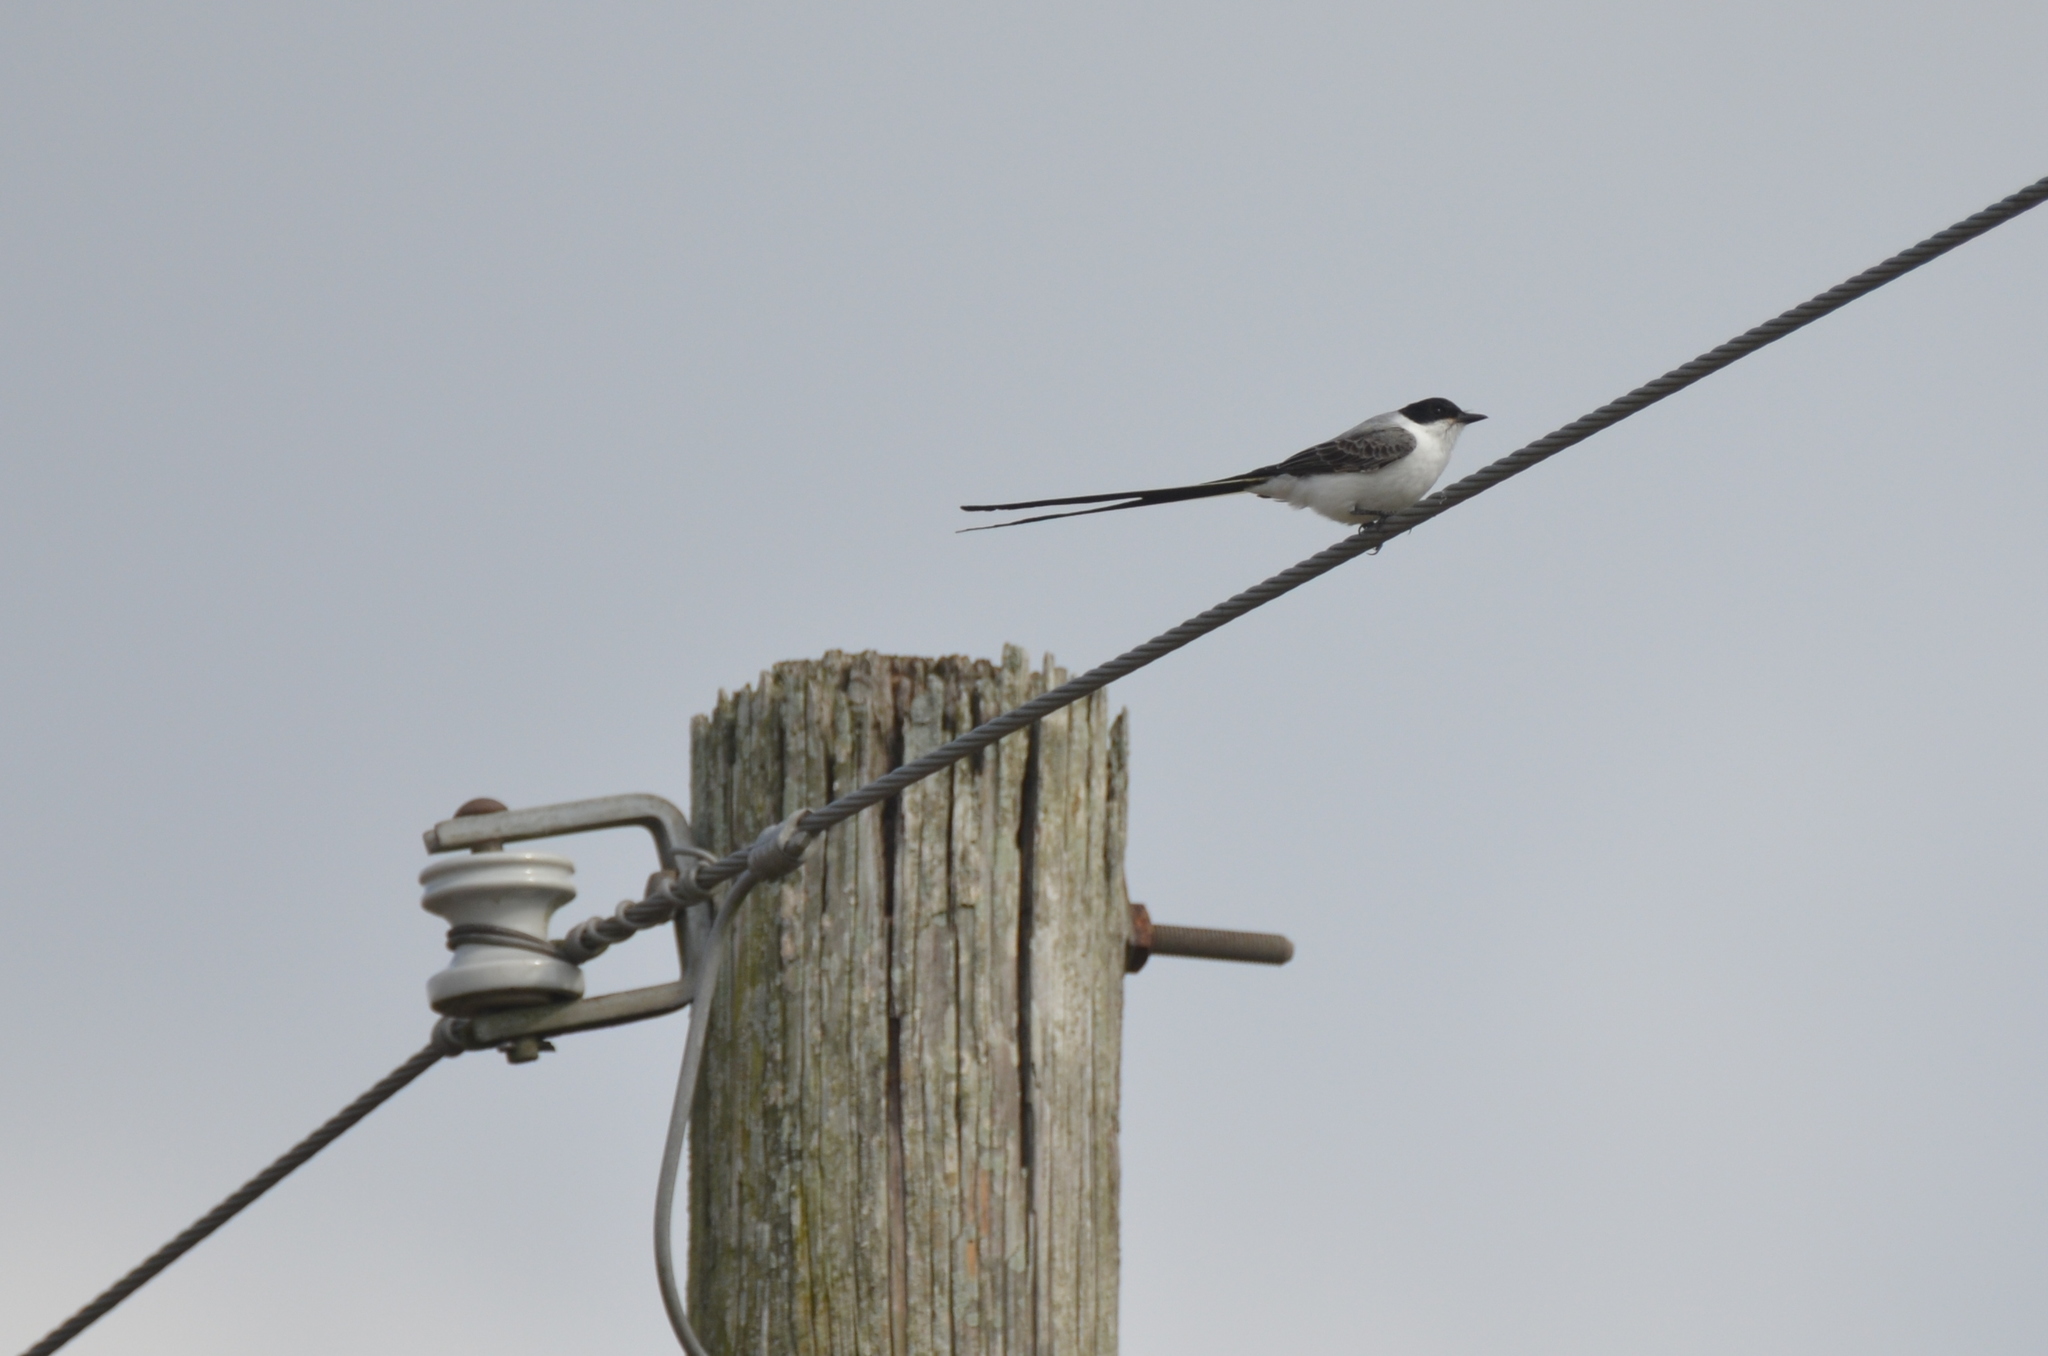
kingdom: Animalia
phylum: Chordata
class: Aves
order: Passeriformes
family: Tyrannidae
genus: Tyrannus
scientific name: Tyrannus savana
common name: Fork-tailed flycatcher
